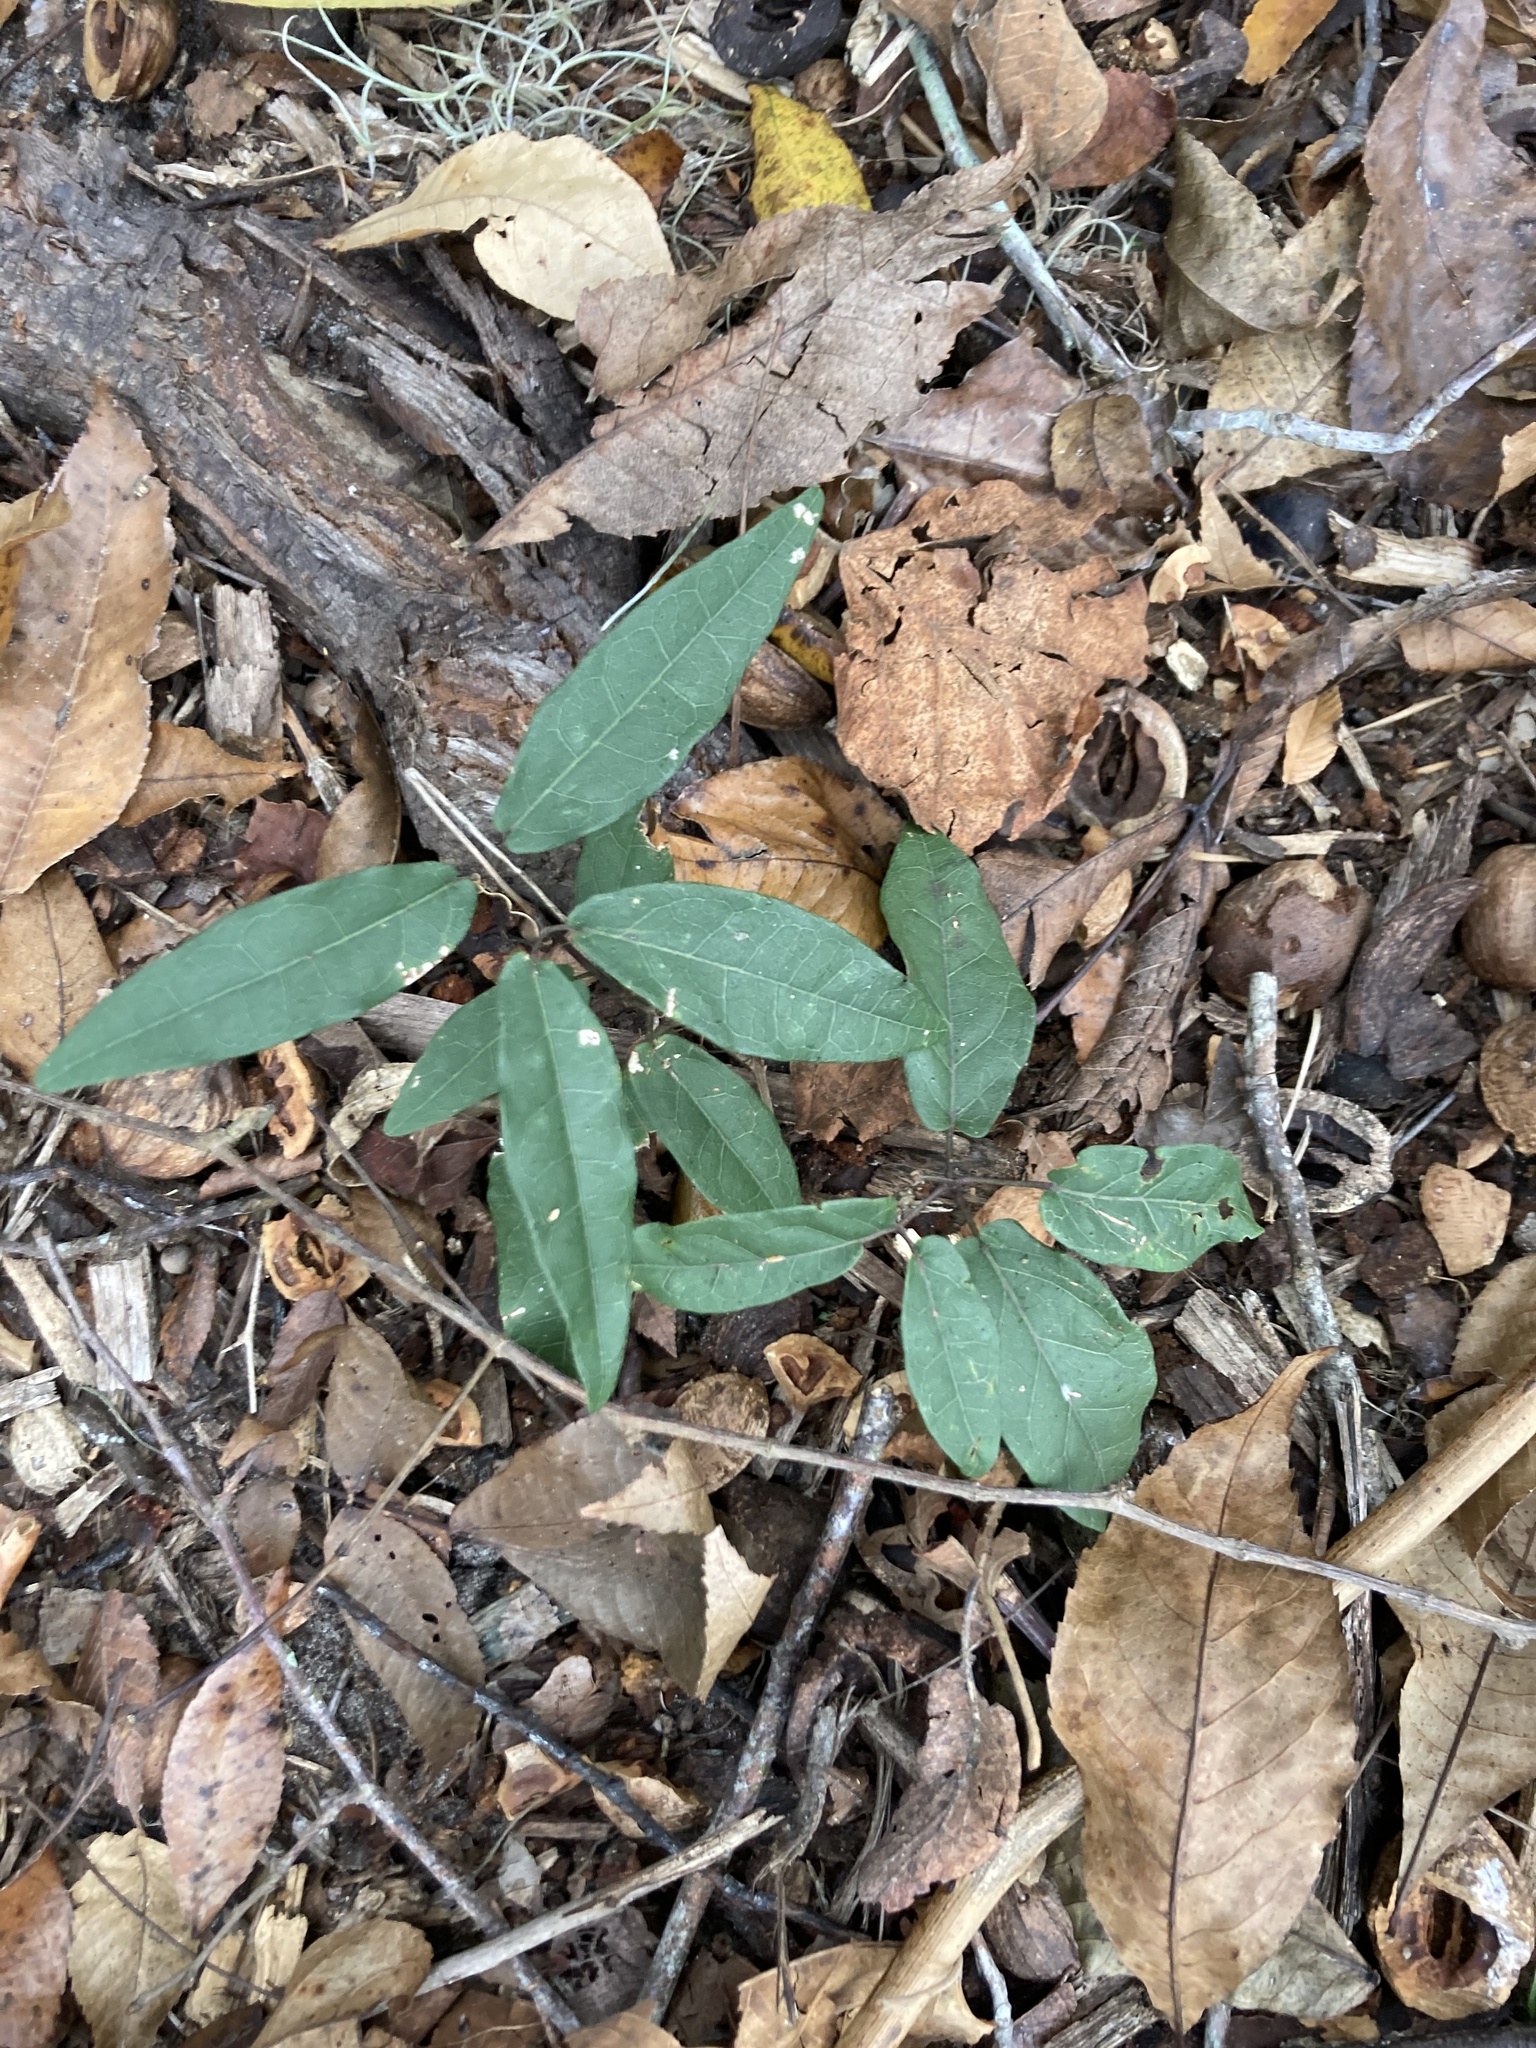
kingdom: Plantae
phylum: Tracheophyta
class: Magnoliopsida
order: Lamiales
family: Bignoniaceae
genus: Bignonia
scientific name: Bignonia capreolata
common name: Crossvine
